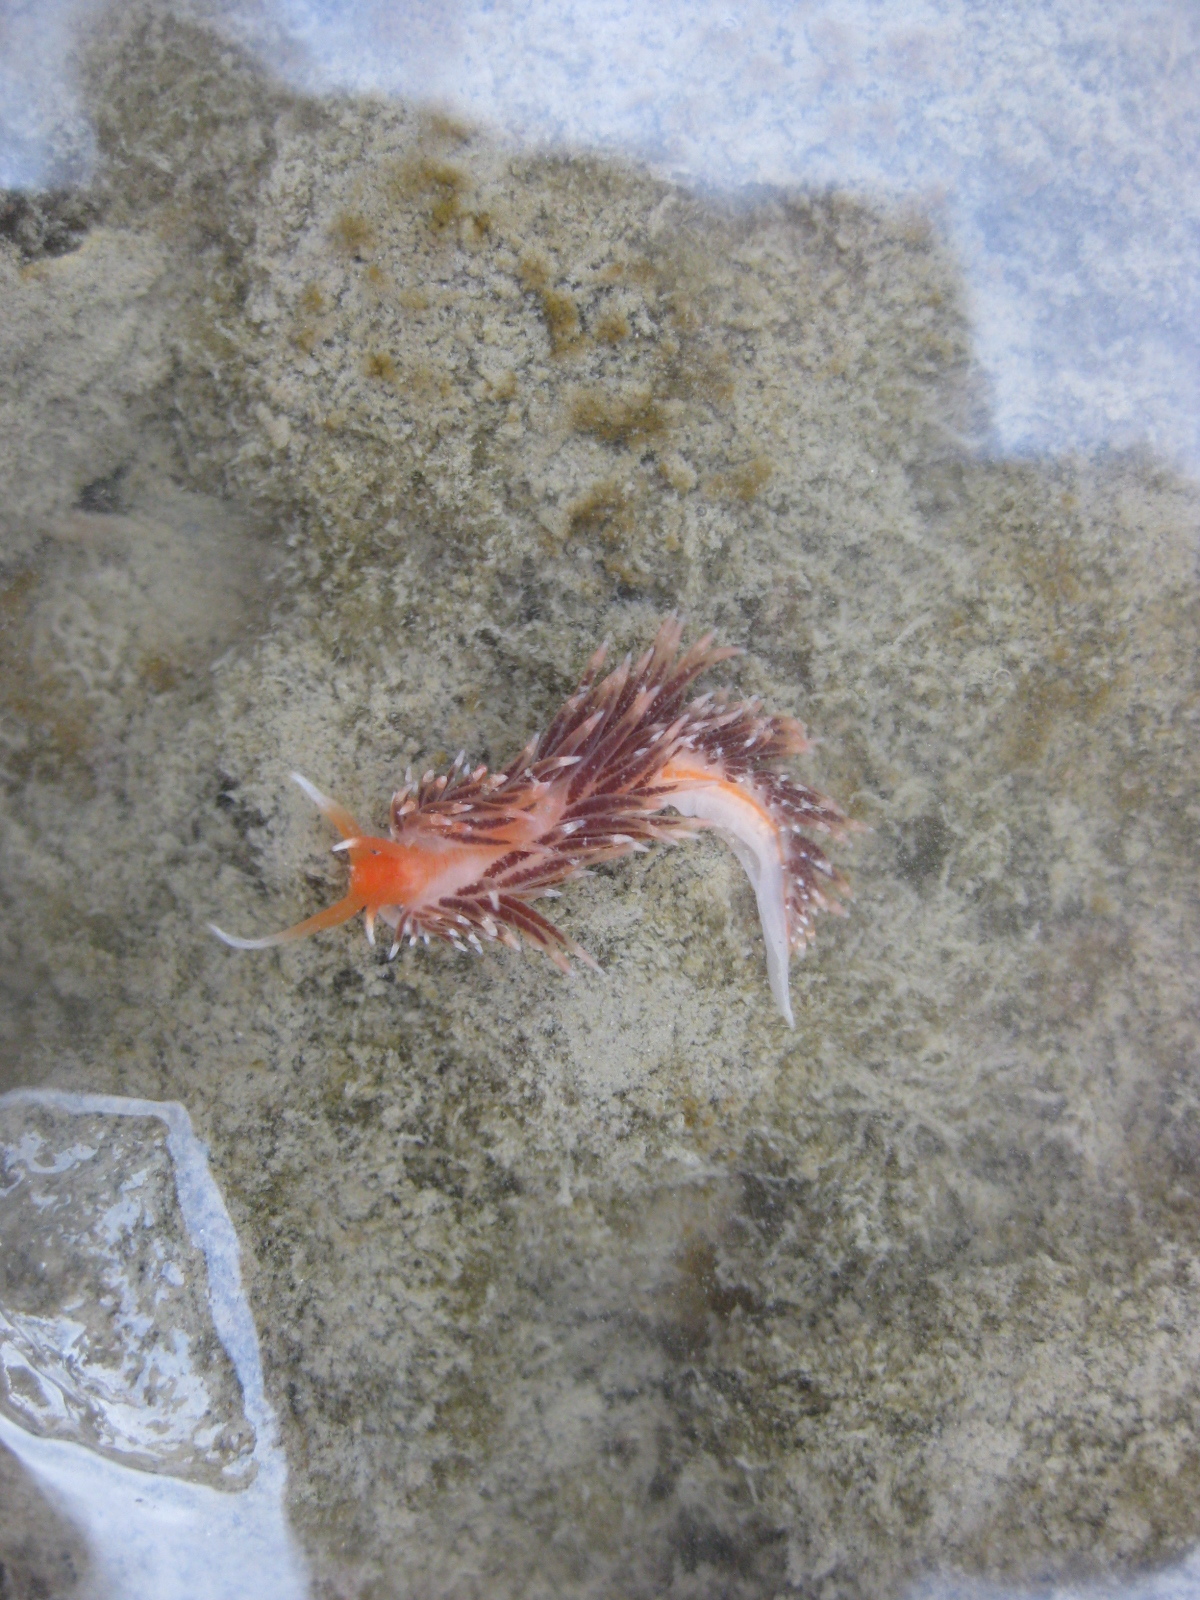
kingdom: Animalia
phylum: Mollusca
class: Gastropoda
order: Nudibranchia
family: Facelinidae
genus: Phidiana
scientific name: Phidiana milleri
